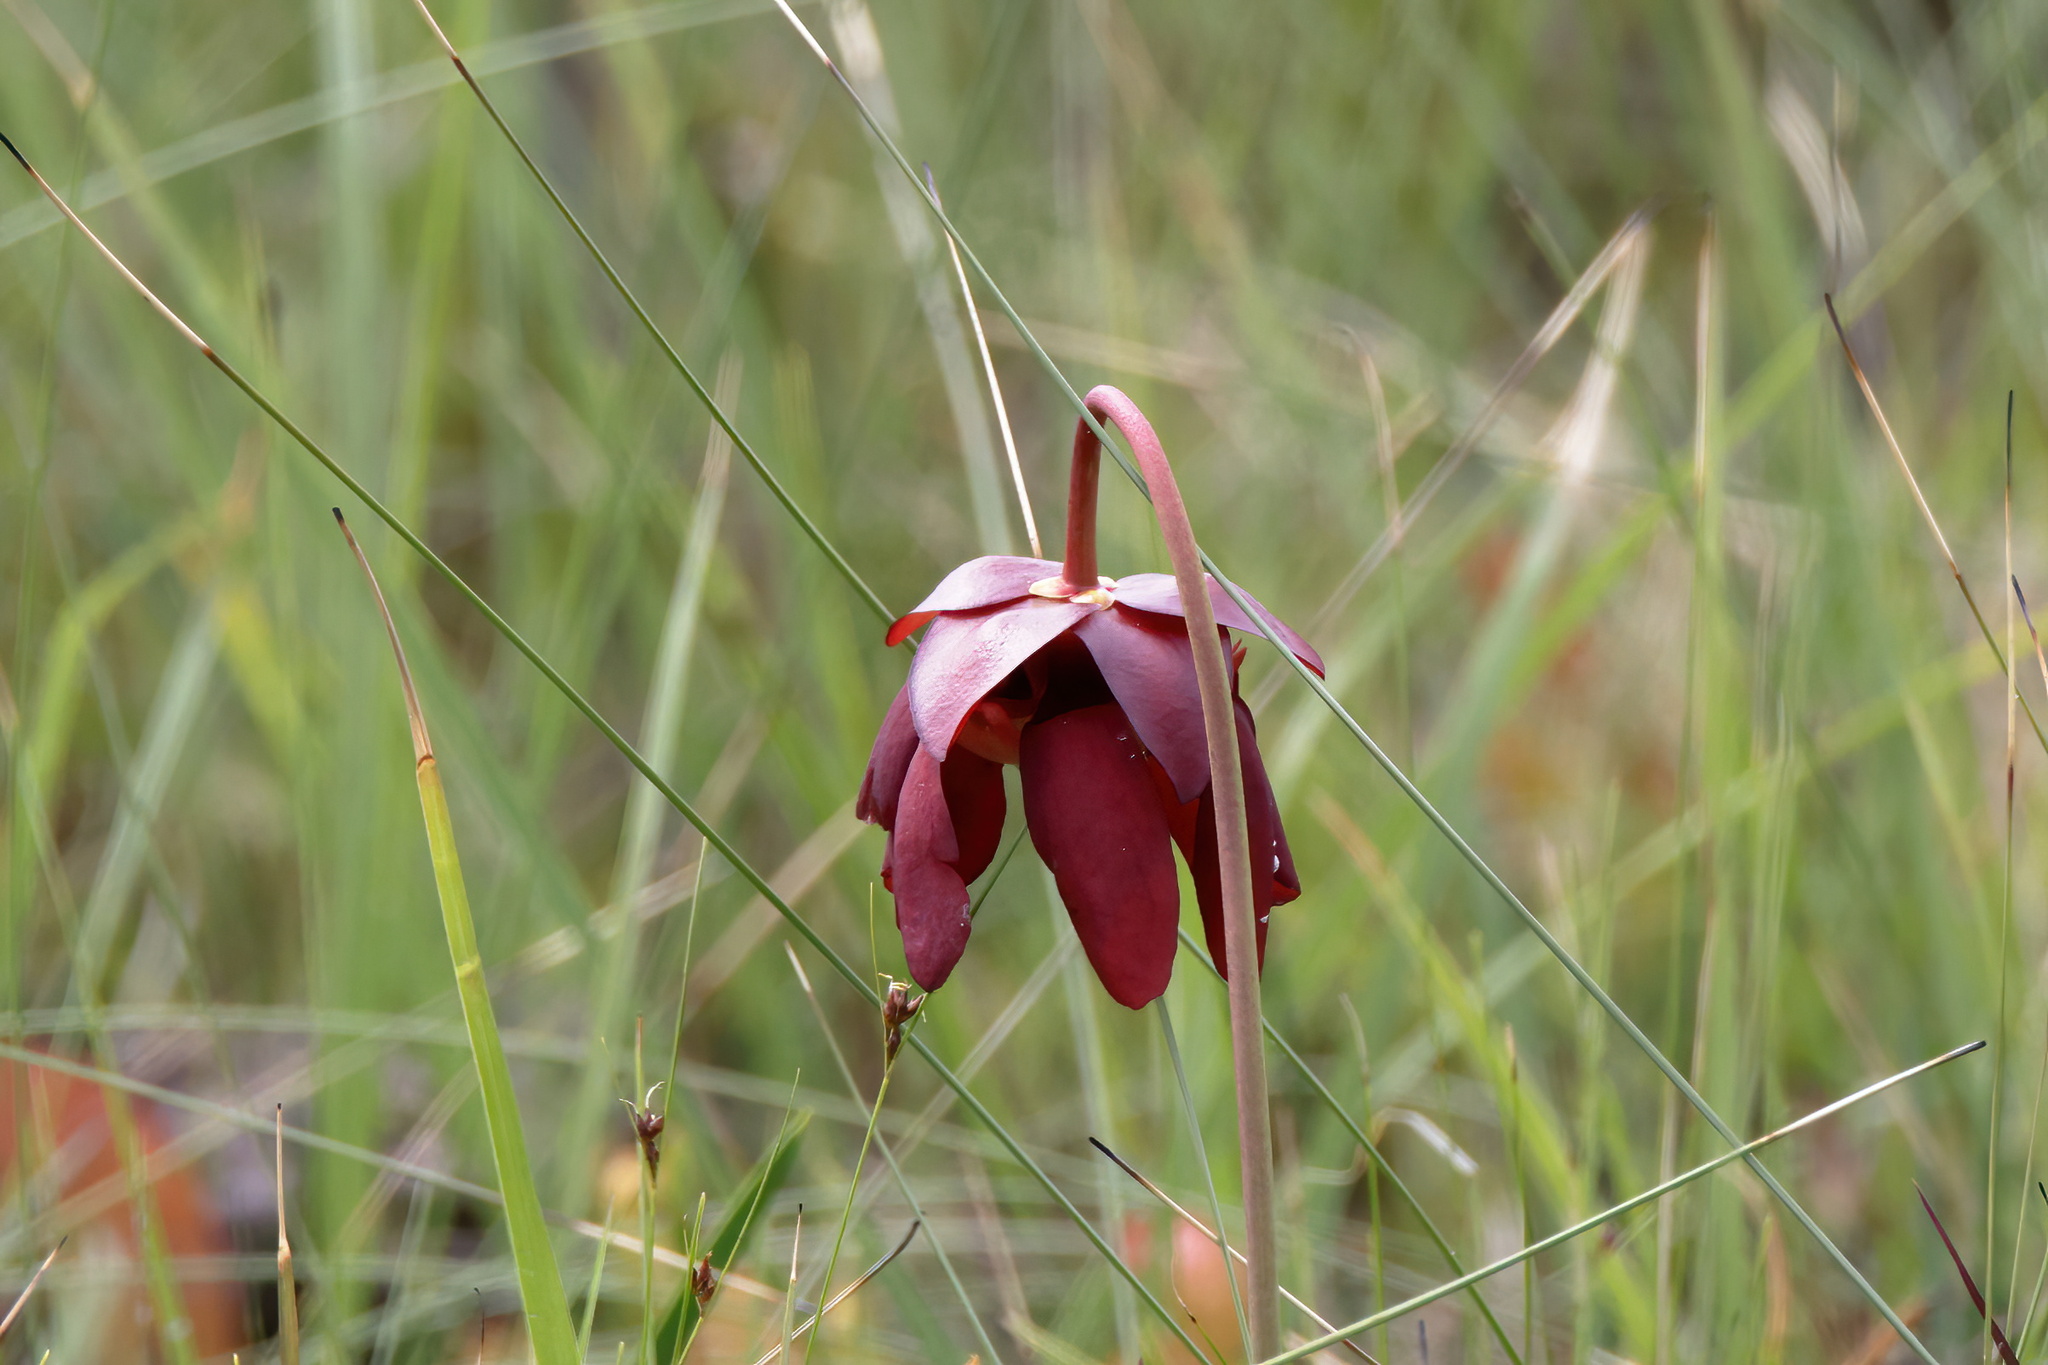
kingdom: Plantae
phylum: Tracheophyta
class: Magnoliopsida
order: Ericales
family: Sarraceniaceae
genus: Sarracenia
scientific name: Sarracenia psittacina
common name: Parrot pitcherplant
